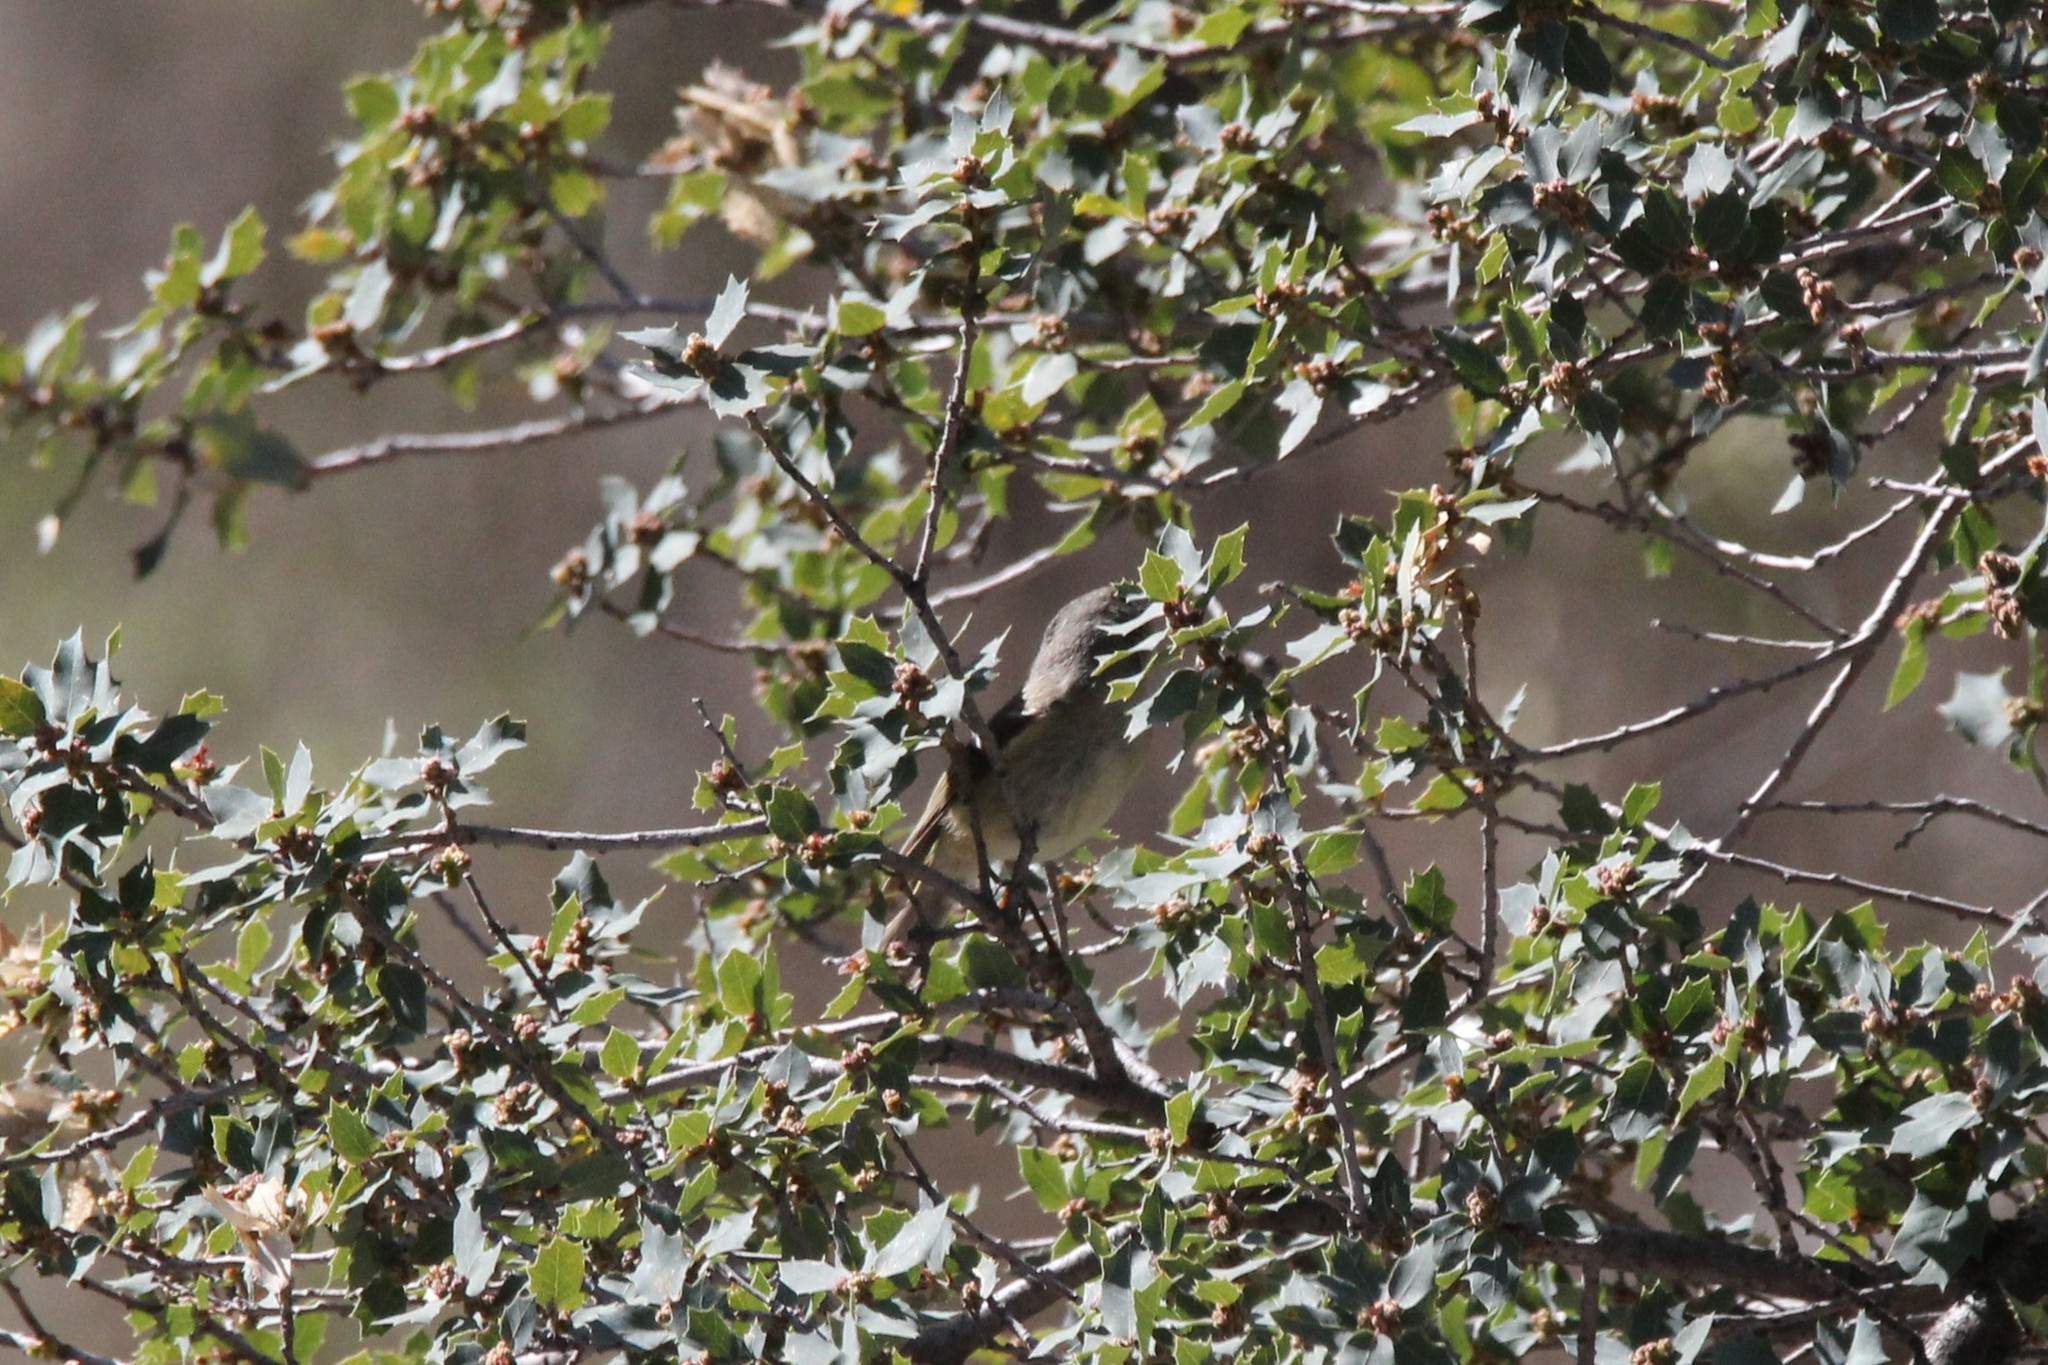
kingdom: Animalia
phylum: Chordata
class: Aves
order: Passeriformes
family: Polioptilidae
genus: Polioptila
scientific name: Polioptila melanura
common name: Black-tailed gnatcatcher
